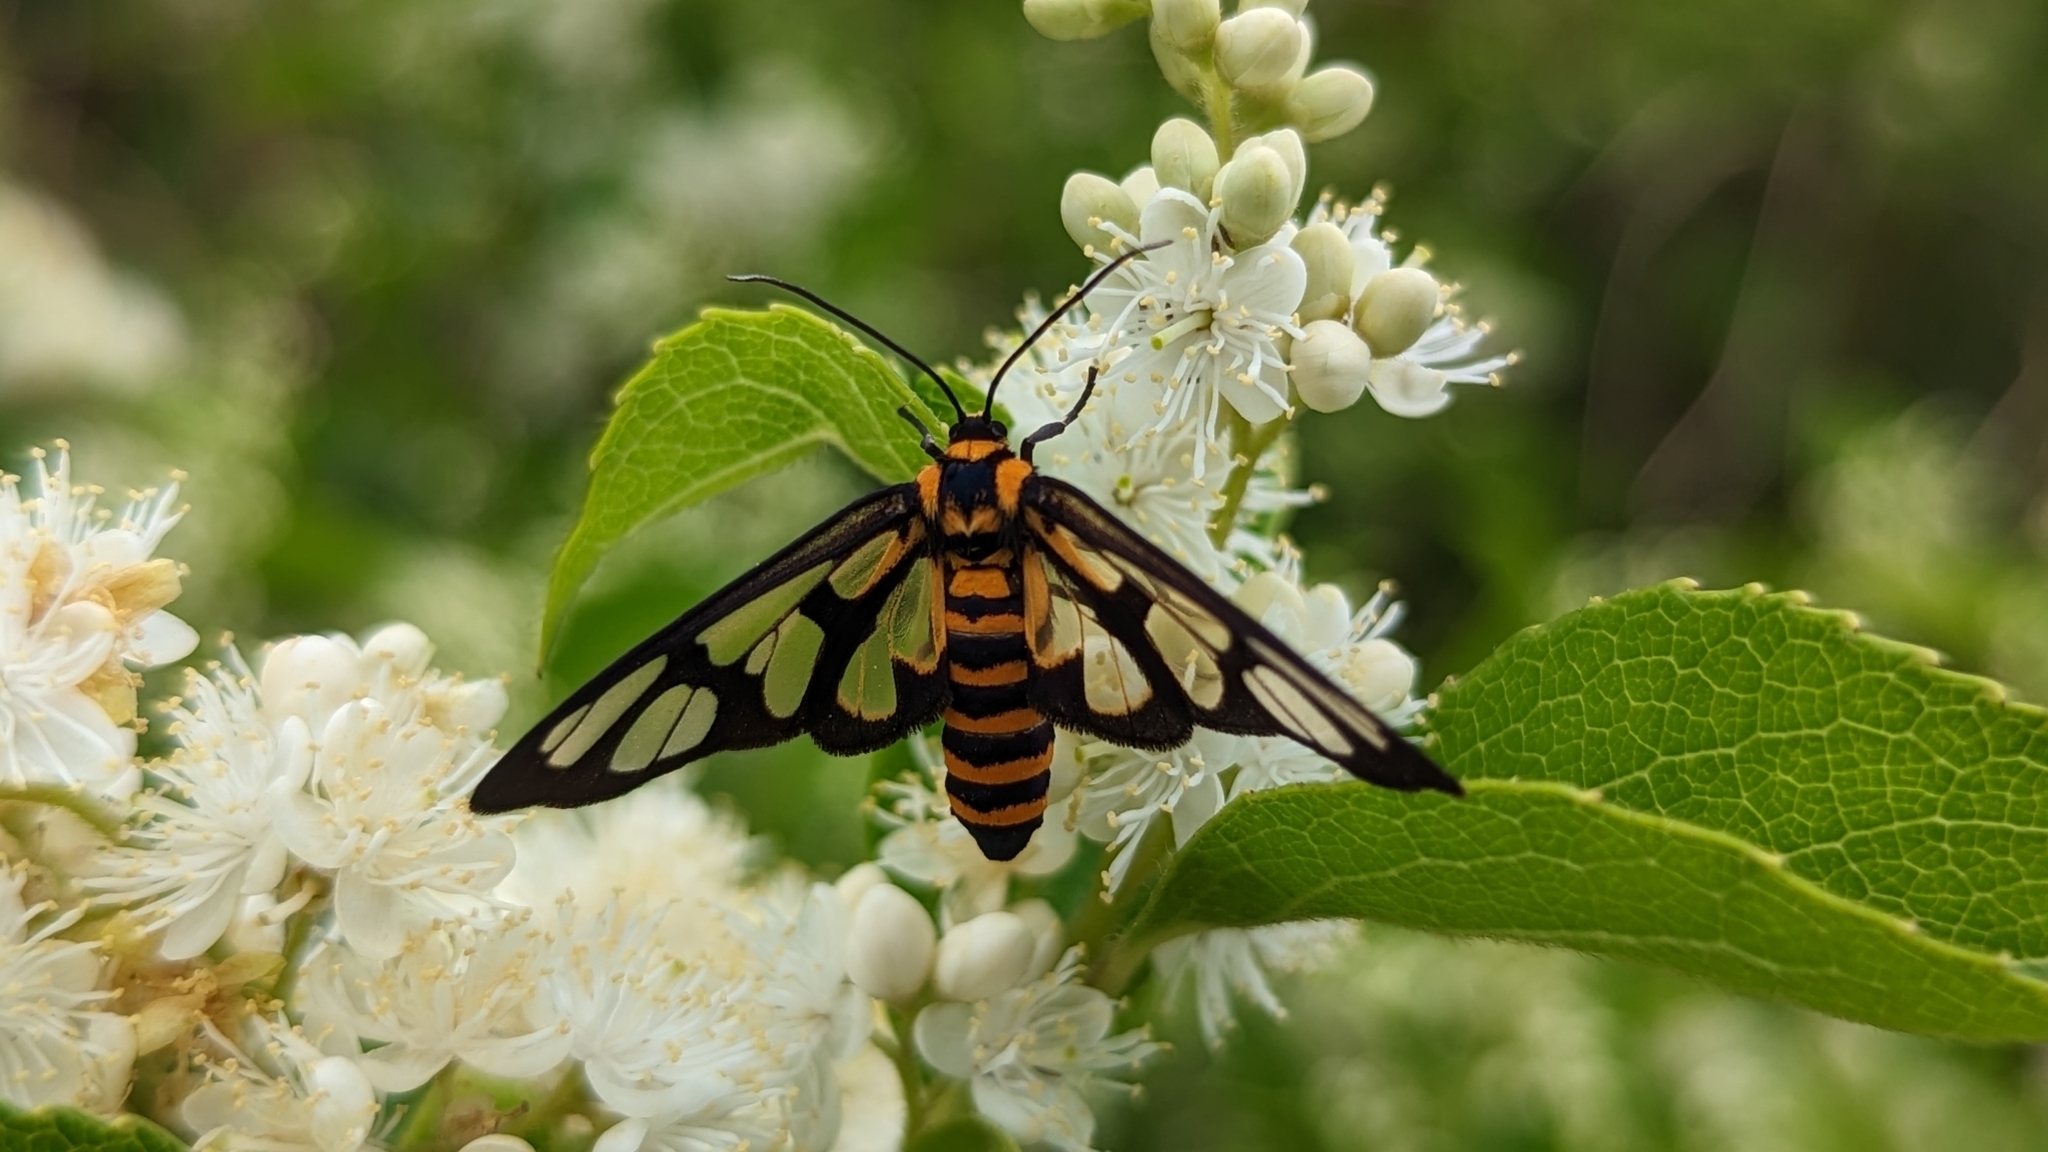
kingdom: Animalia
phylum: Arthropoda
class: Insecta
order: Lepidoptera
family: Erebidae
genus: Amata
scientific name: Amata persimilis
